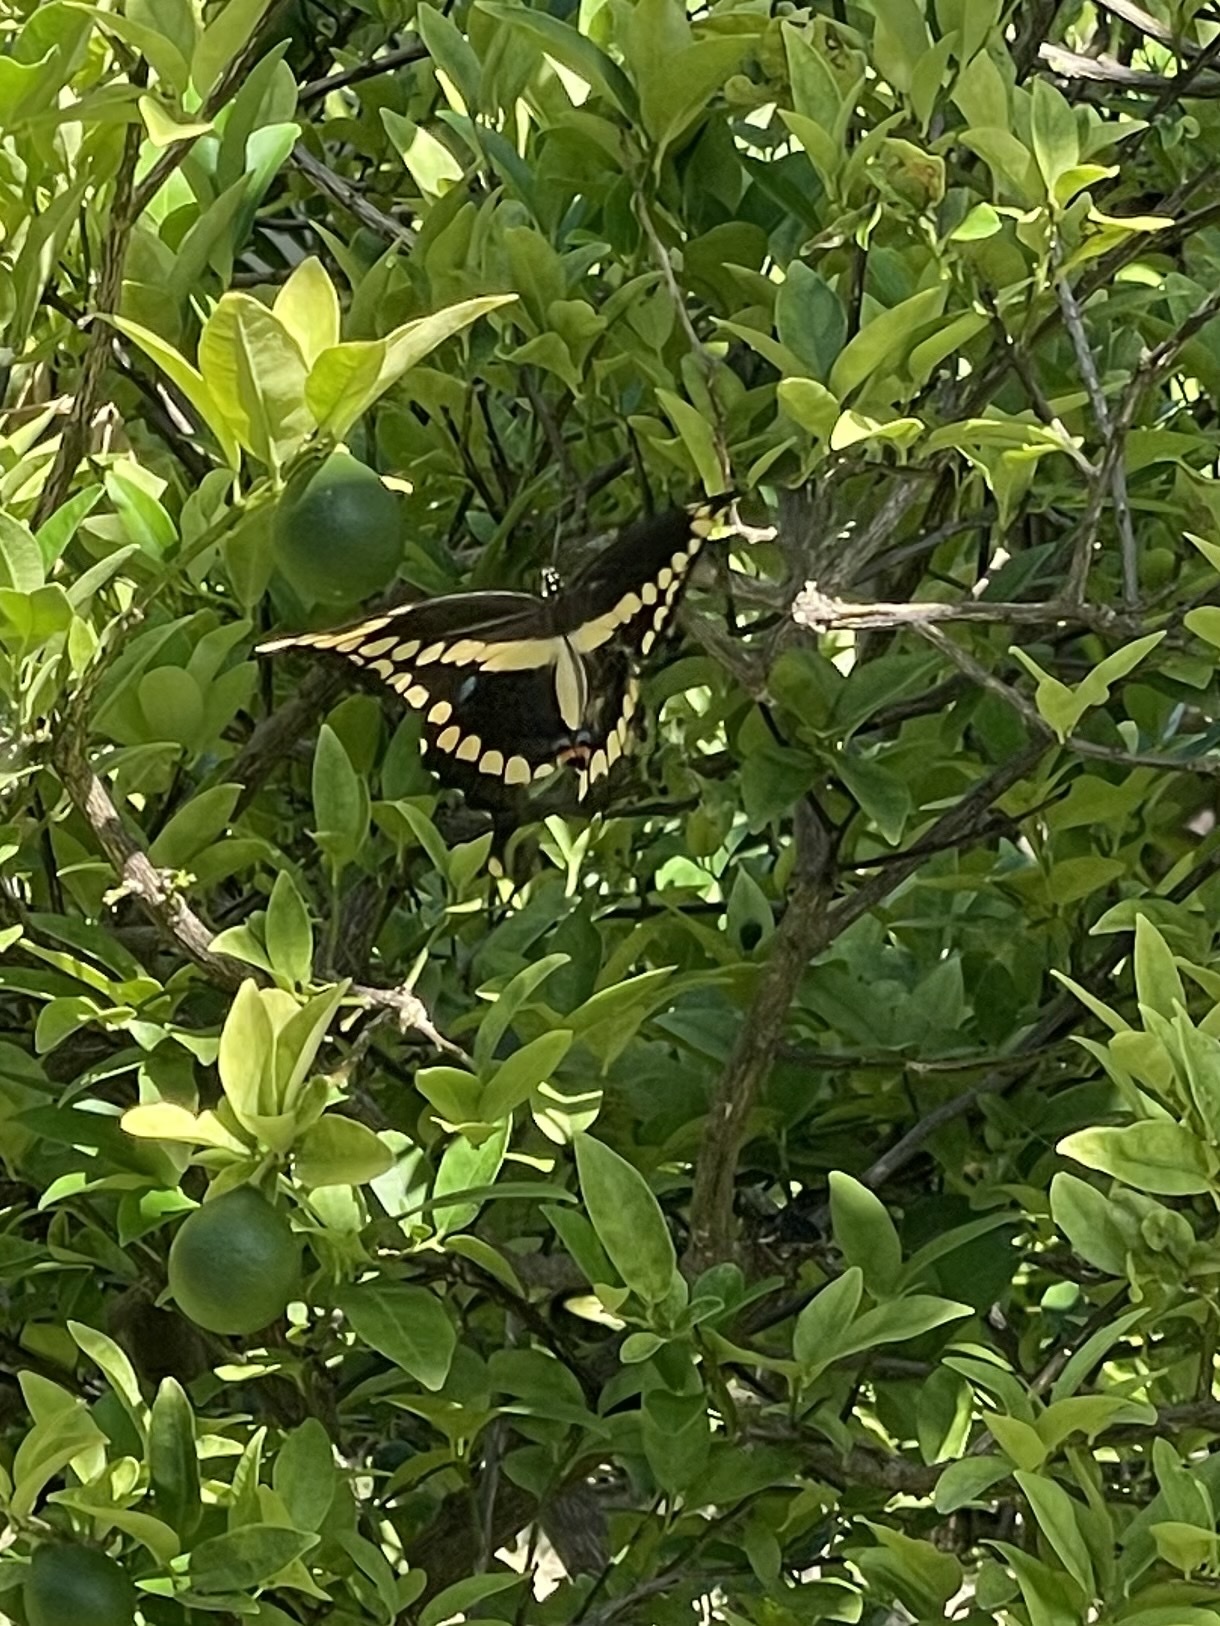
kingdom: Animalia
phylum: Arthropoda
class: Insecta
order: Lepidoptera
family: Papilionidae
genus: Papilio
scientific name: Papilio cresphontes
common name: Giant swallowtail
